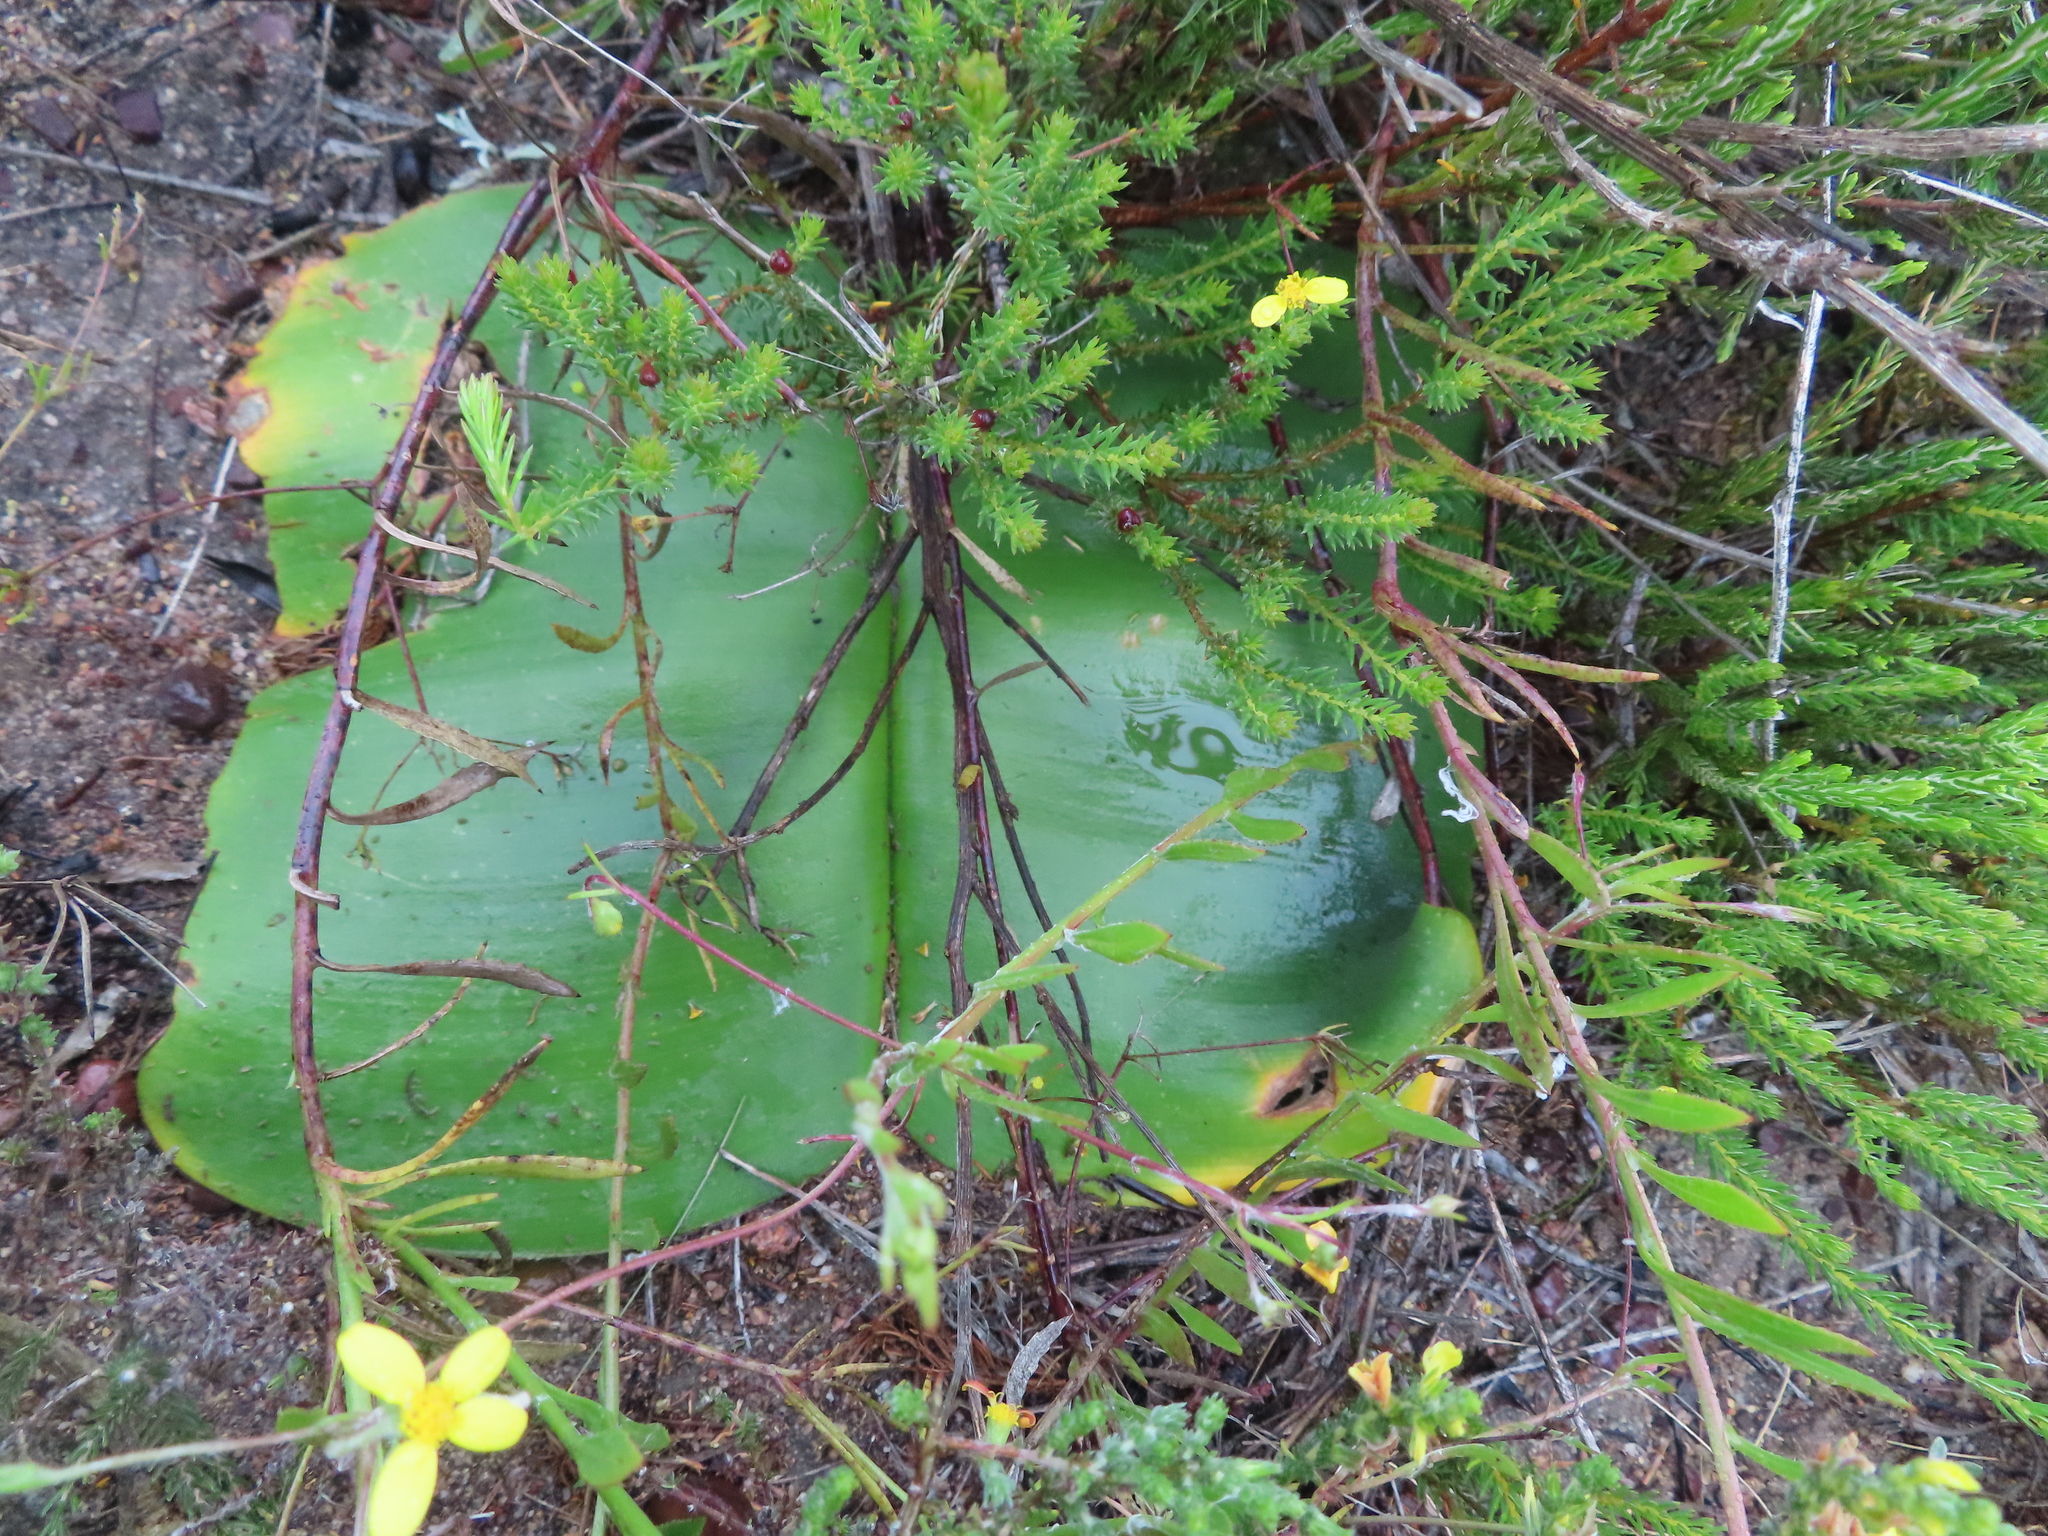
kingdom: Plantae
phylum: Tracheophyta
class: Liliopsida
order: Asparagales
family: Amaryllidaceae
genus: Haemanthus
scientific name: Haemanthus sanguineus
